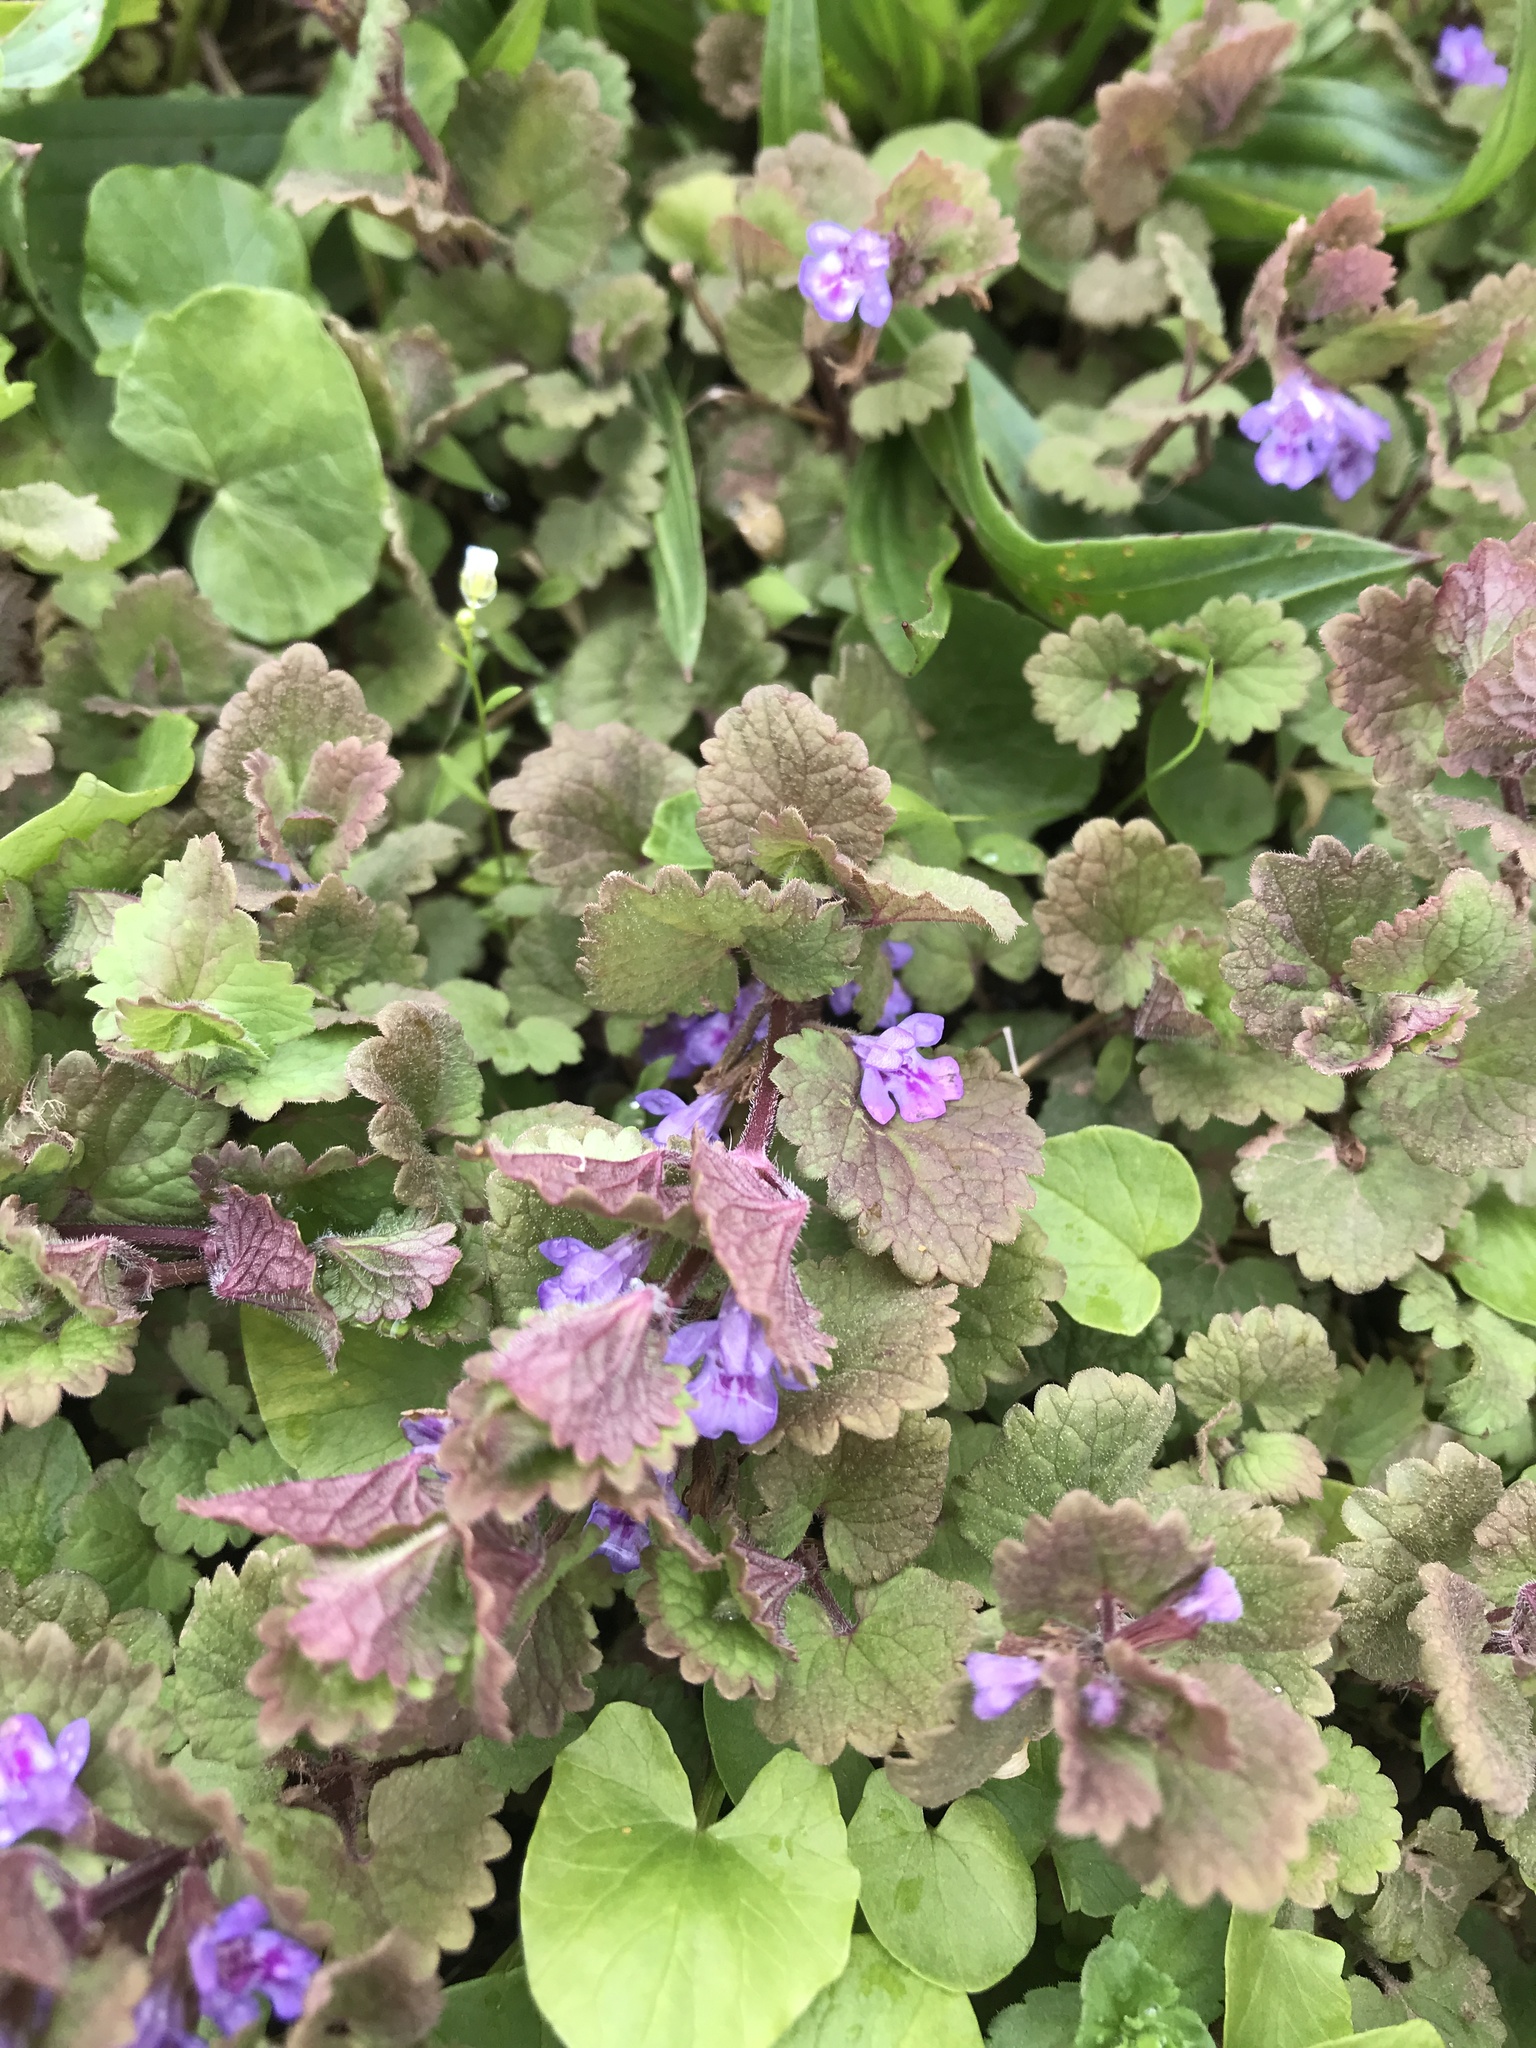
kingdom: Plantae
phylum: Tracheophyta
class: Magnoliopsida
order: Lamiales
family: Lamiaceae
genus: Glechoma
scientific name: Glechoma hederacea
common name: Ground ivy
